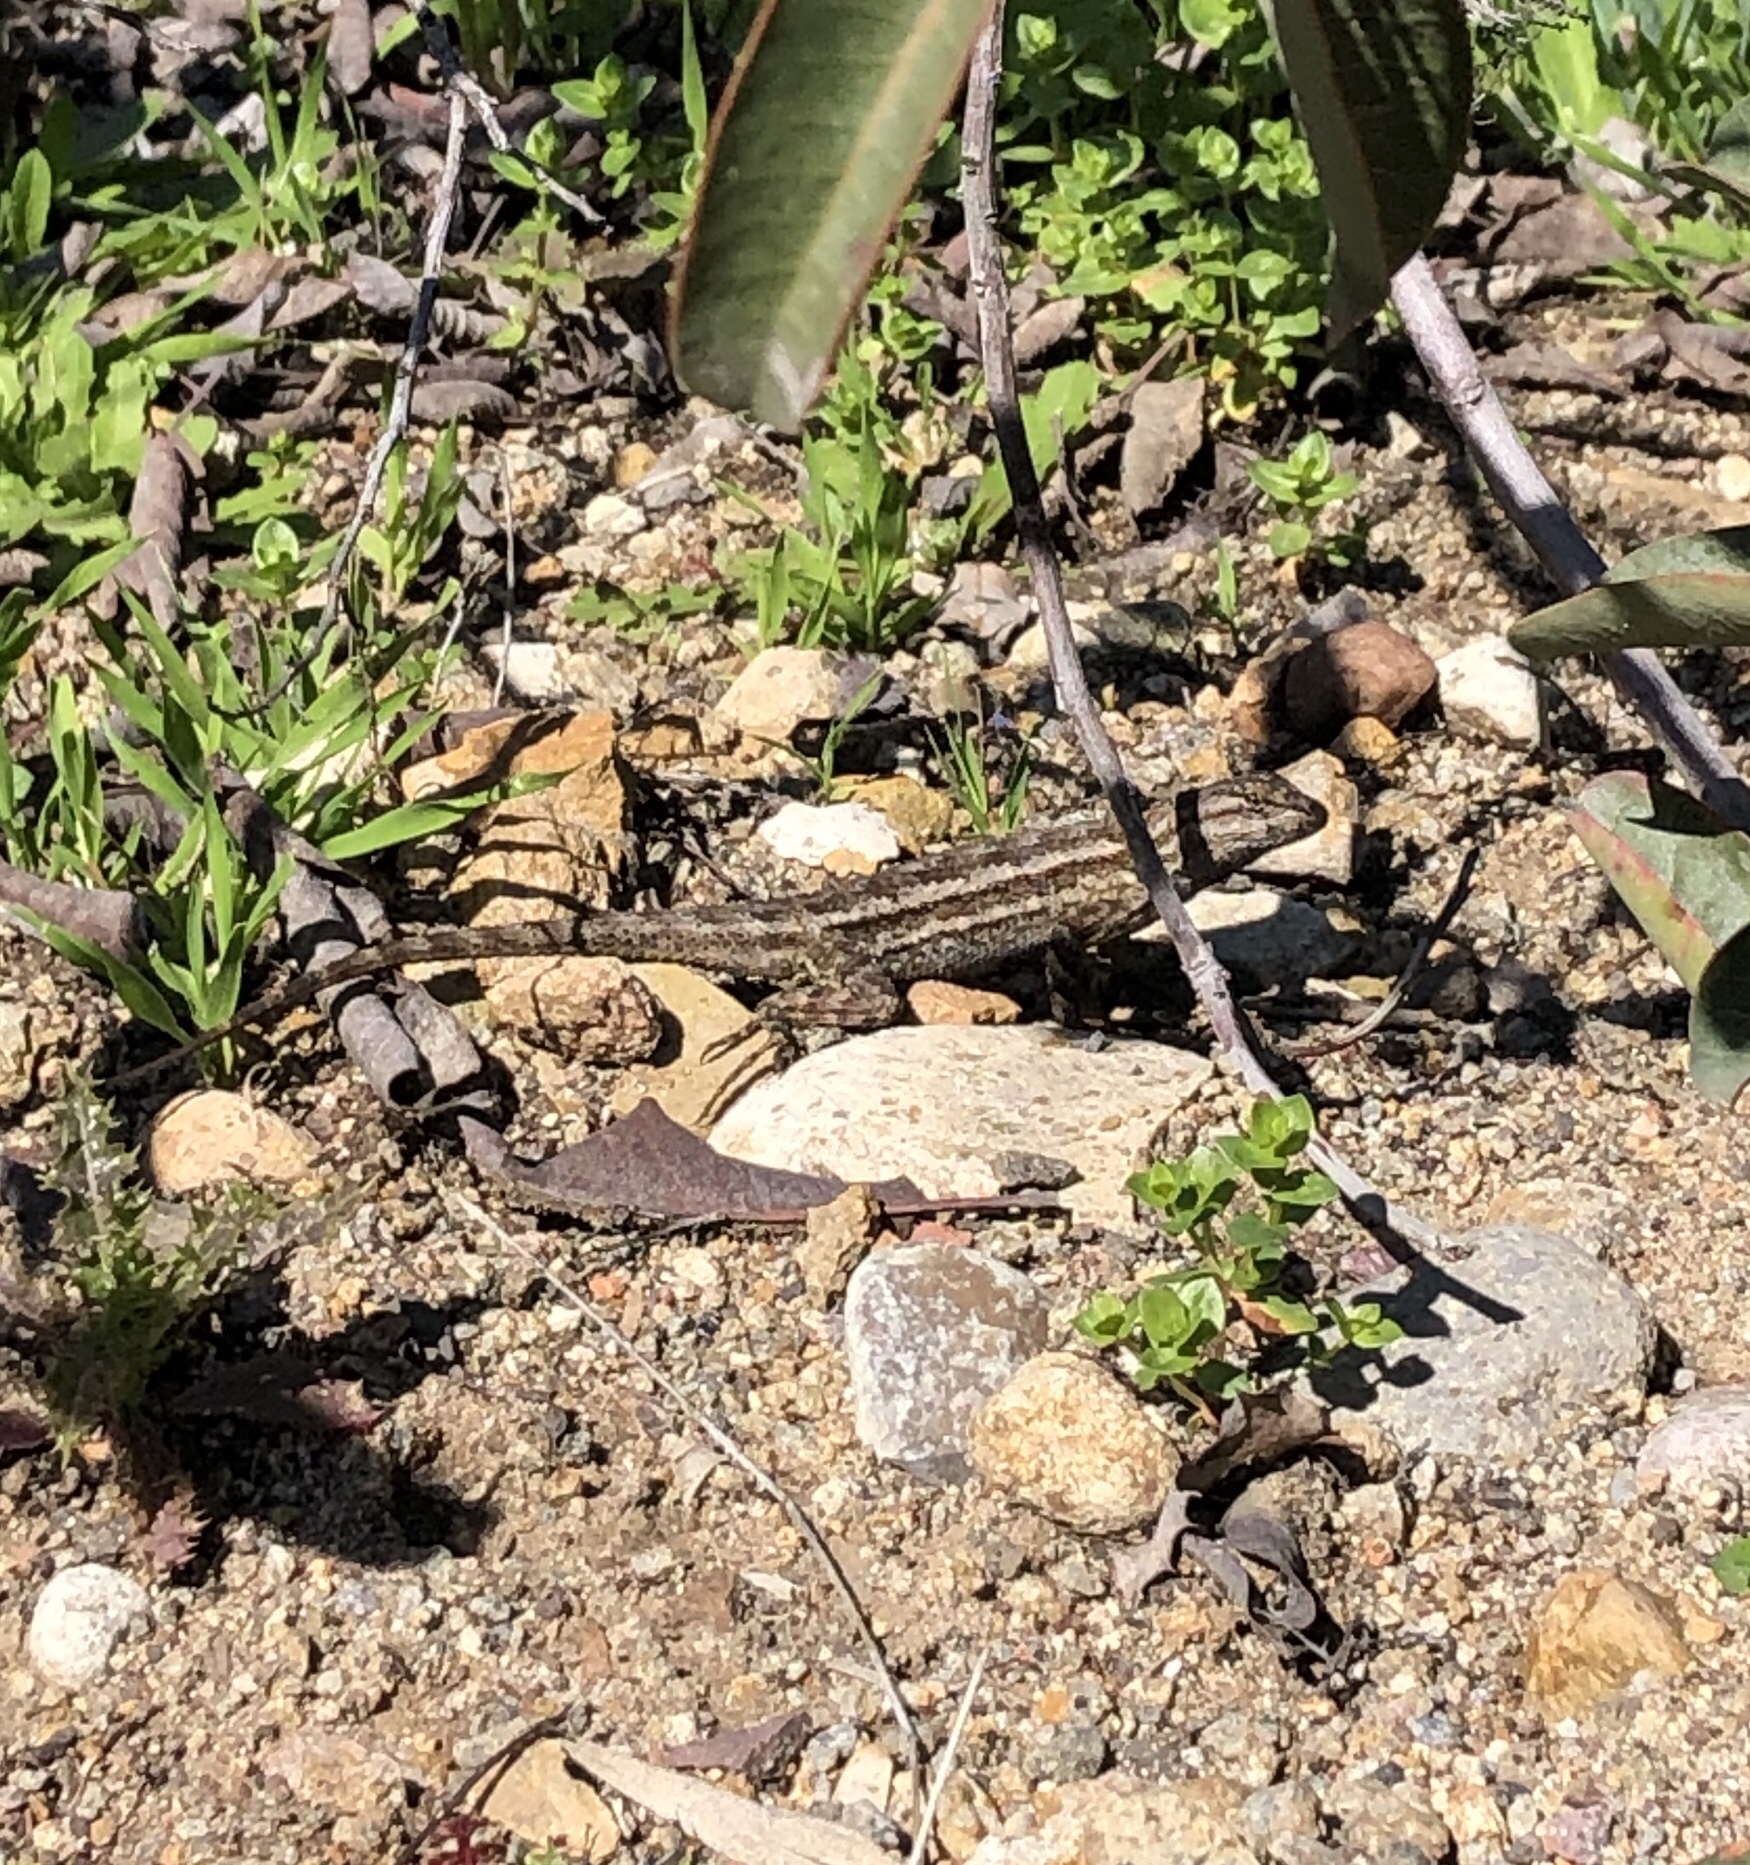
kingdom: Animalia
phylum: Chordata
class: Squamata
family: Phrynosomatidae
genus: Sceloporus
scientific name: Sceloporus occidentalis
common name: Western fence lizard
